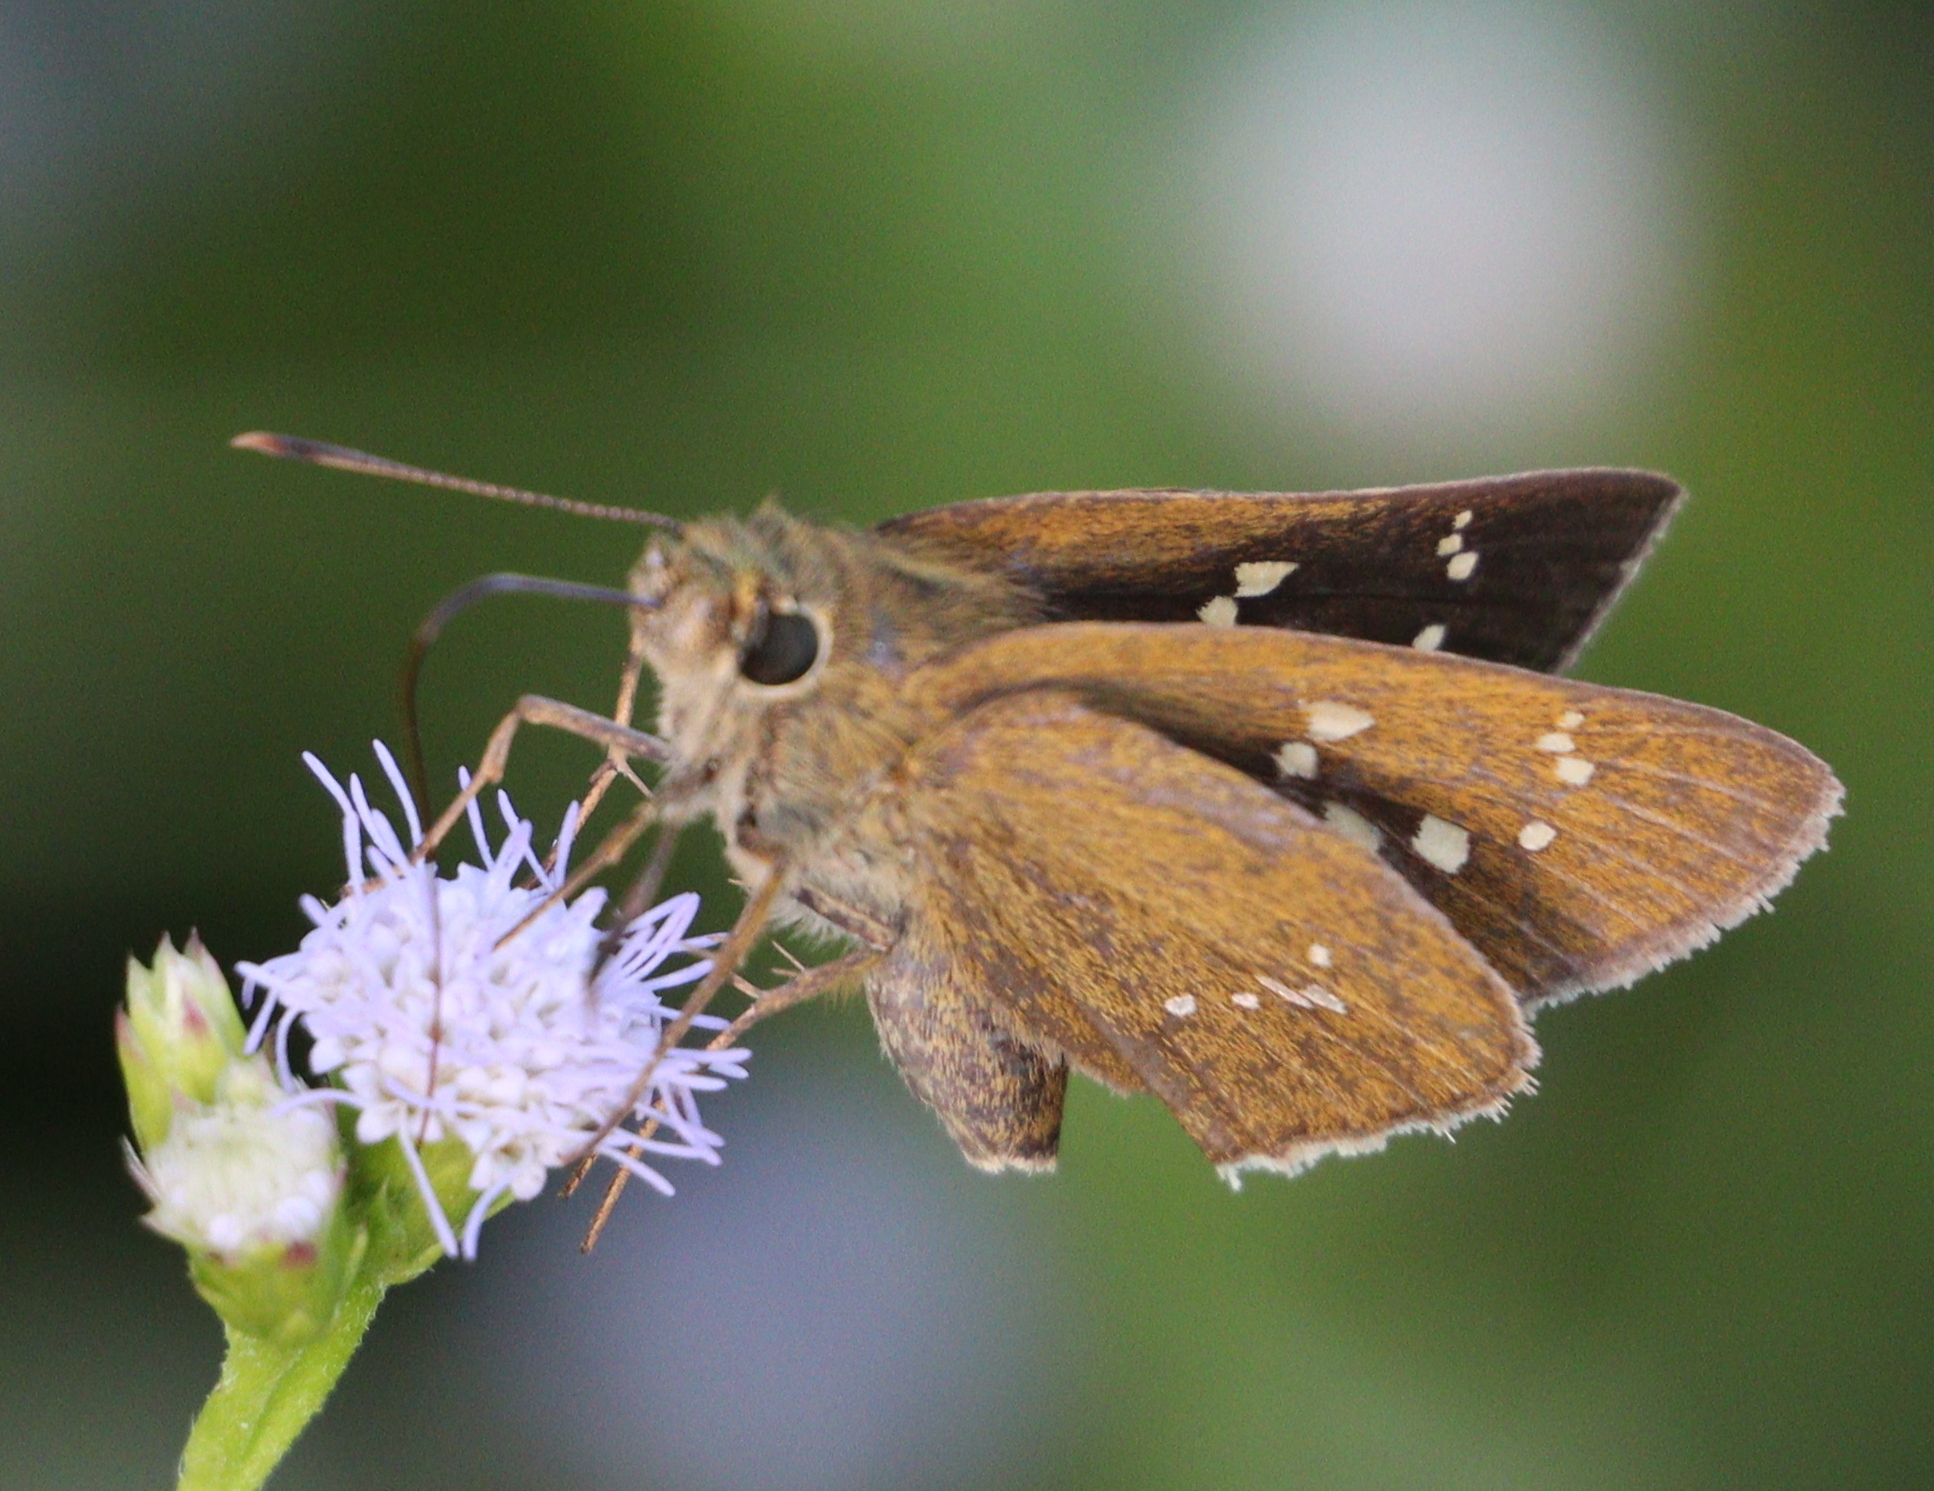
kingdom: Animalia
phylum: Arthropoda
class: Insecta
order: Lepidoptera
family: Hesperiidae
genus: Polytremis
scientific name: Polytremis lubricans
